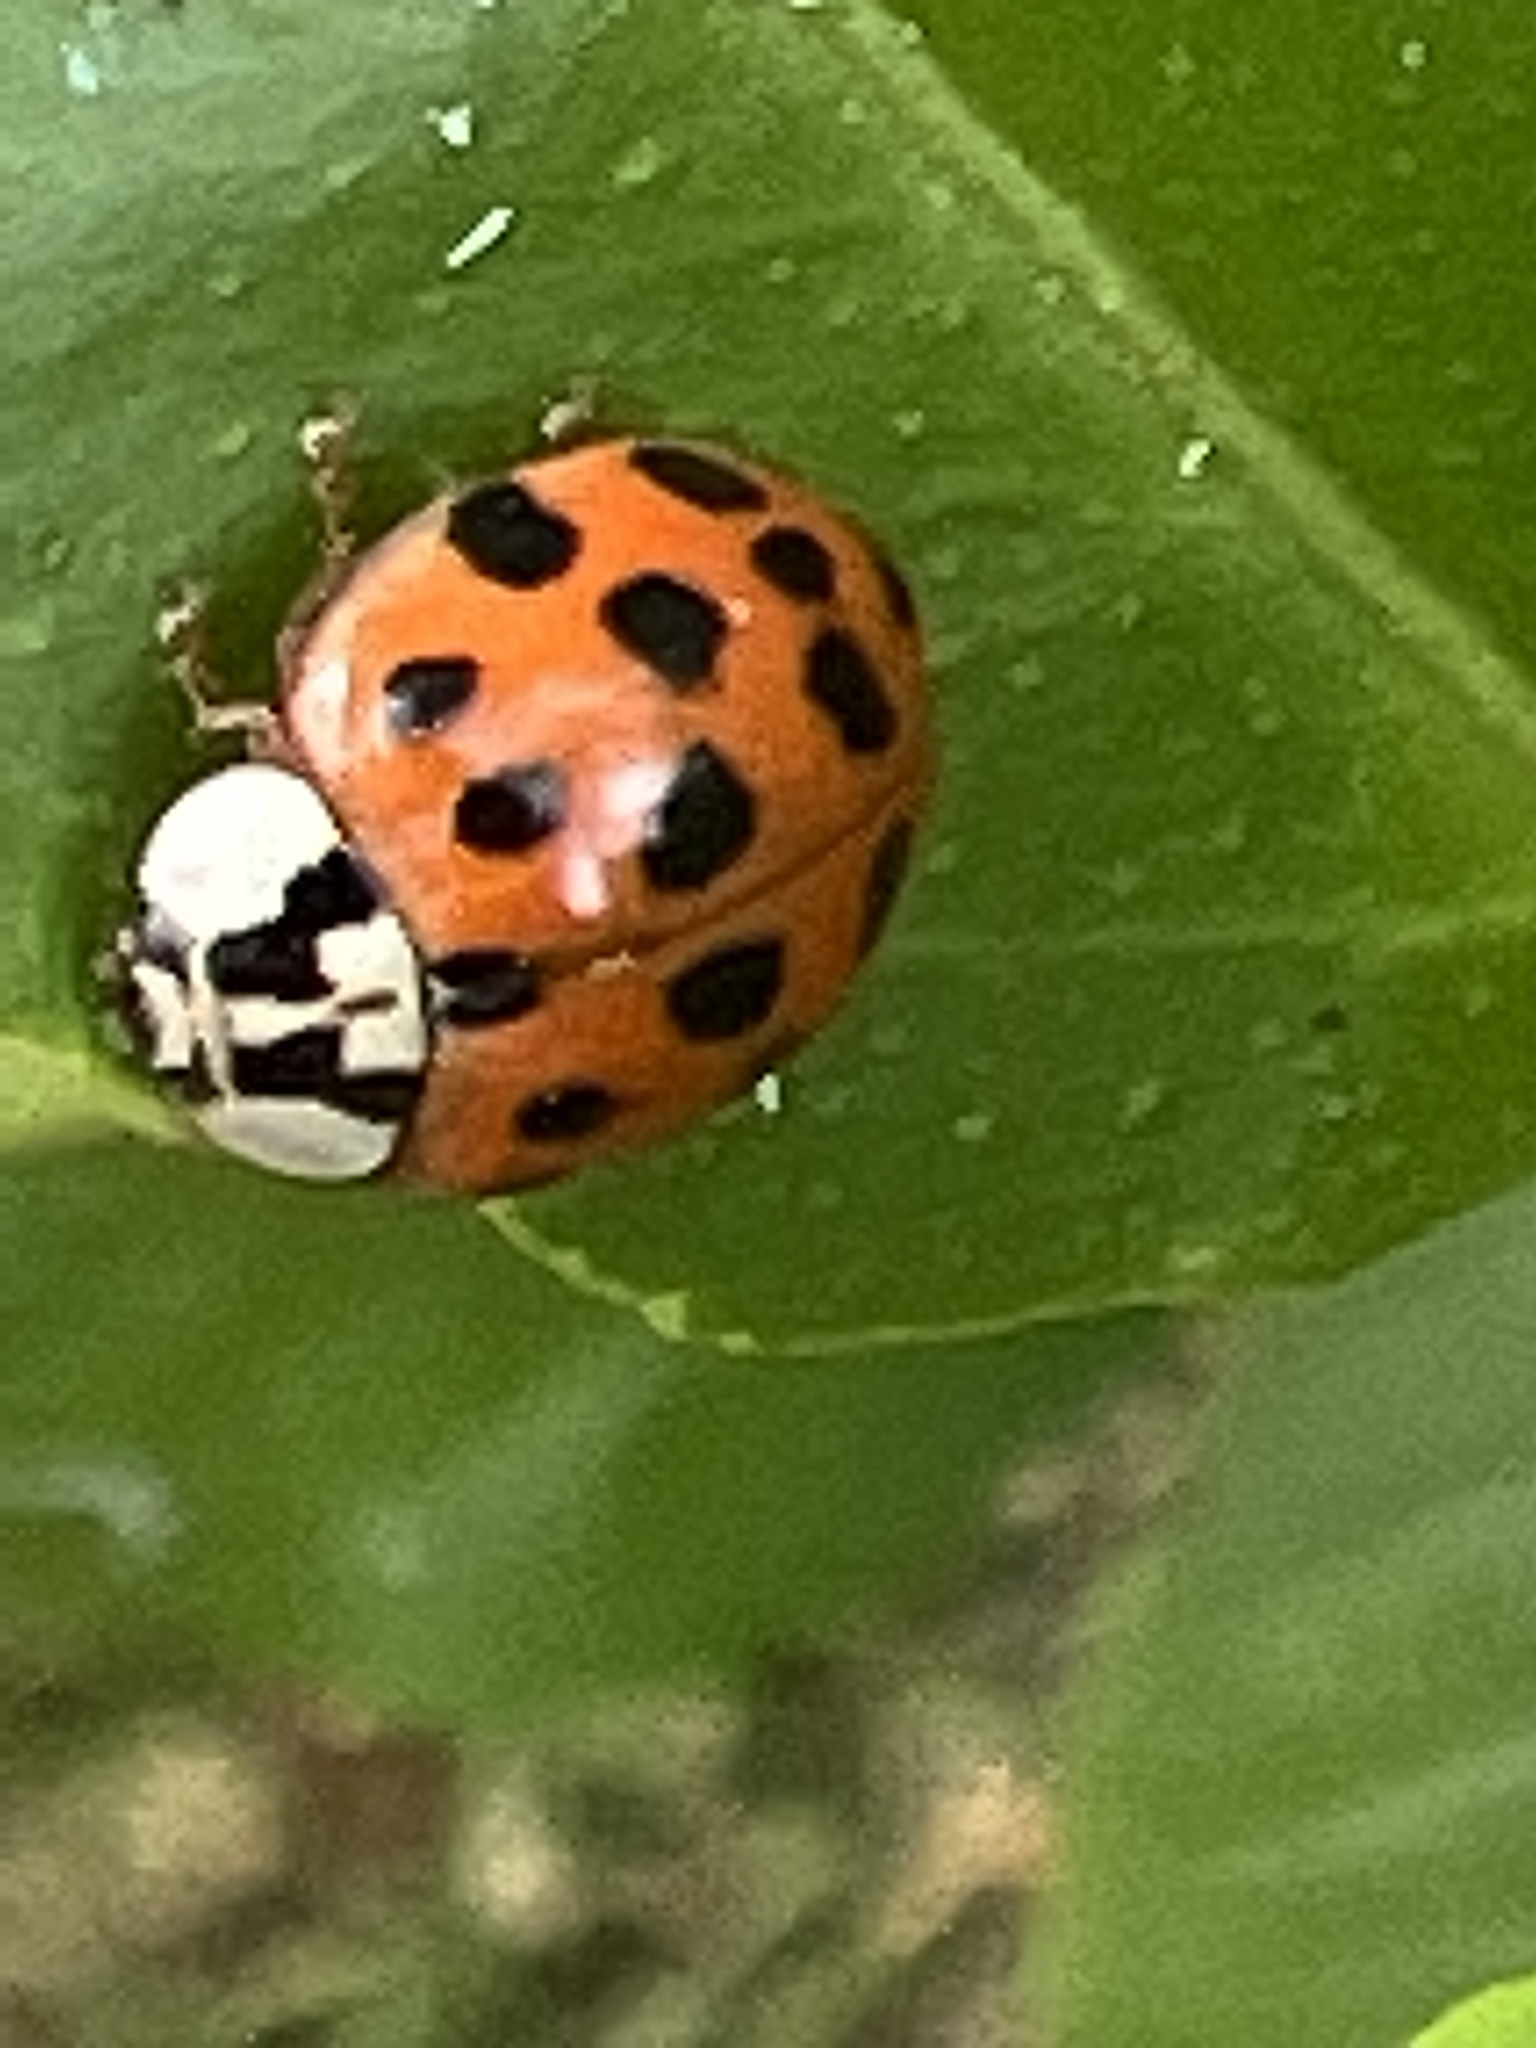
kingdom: Animalia
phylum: Arthropoda
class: Insecta
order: Coleoptera
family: Coccinellidae
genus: Harmonia
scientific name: Harmonia axyridis
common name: Harlequin ladybird
